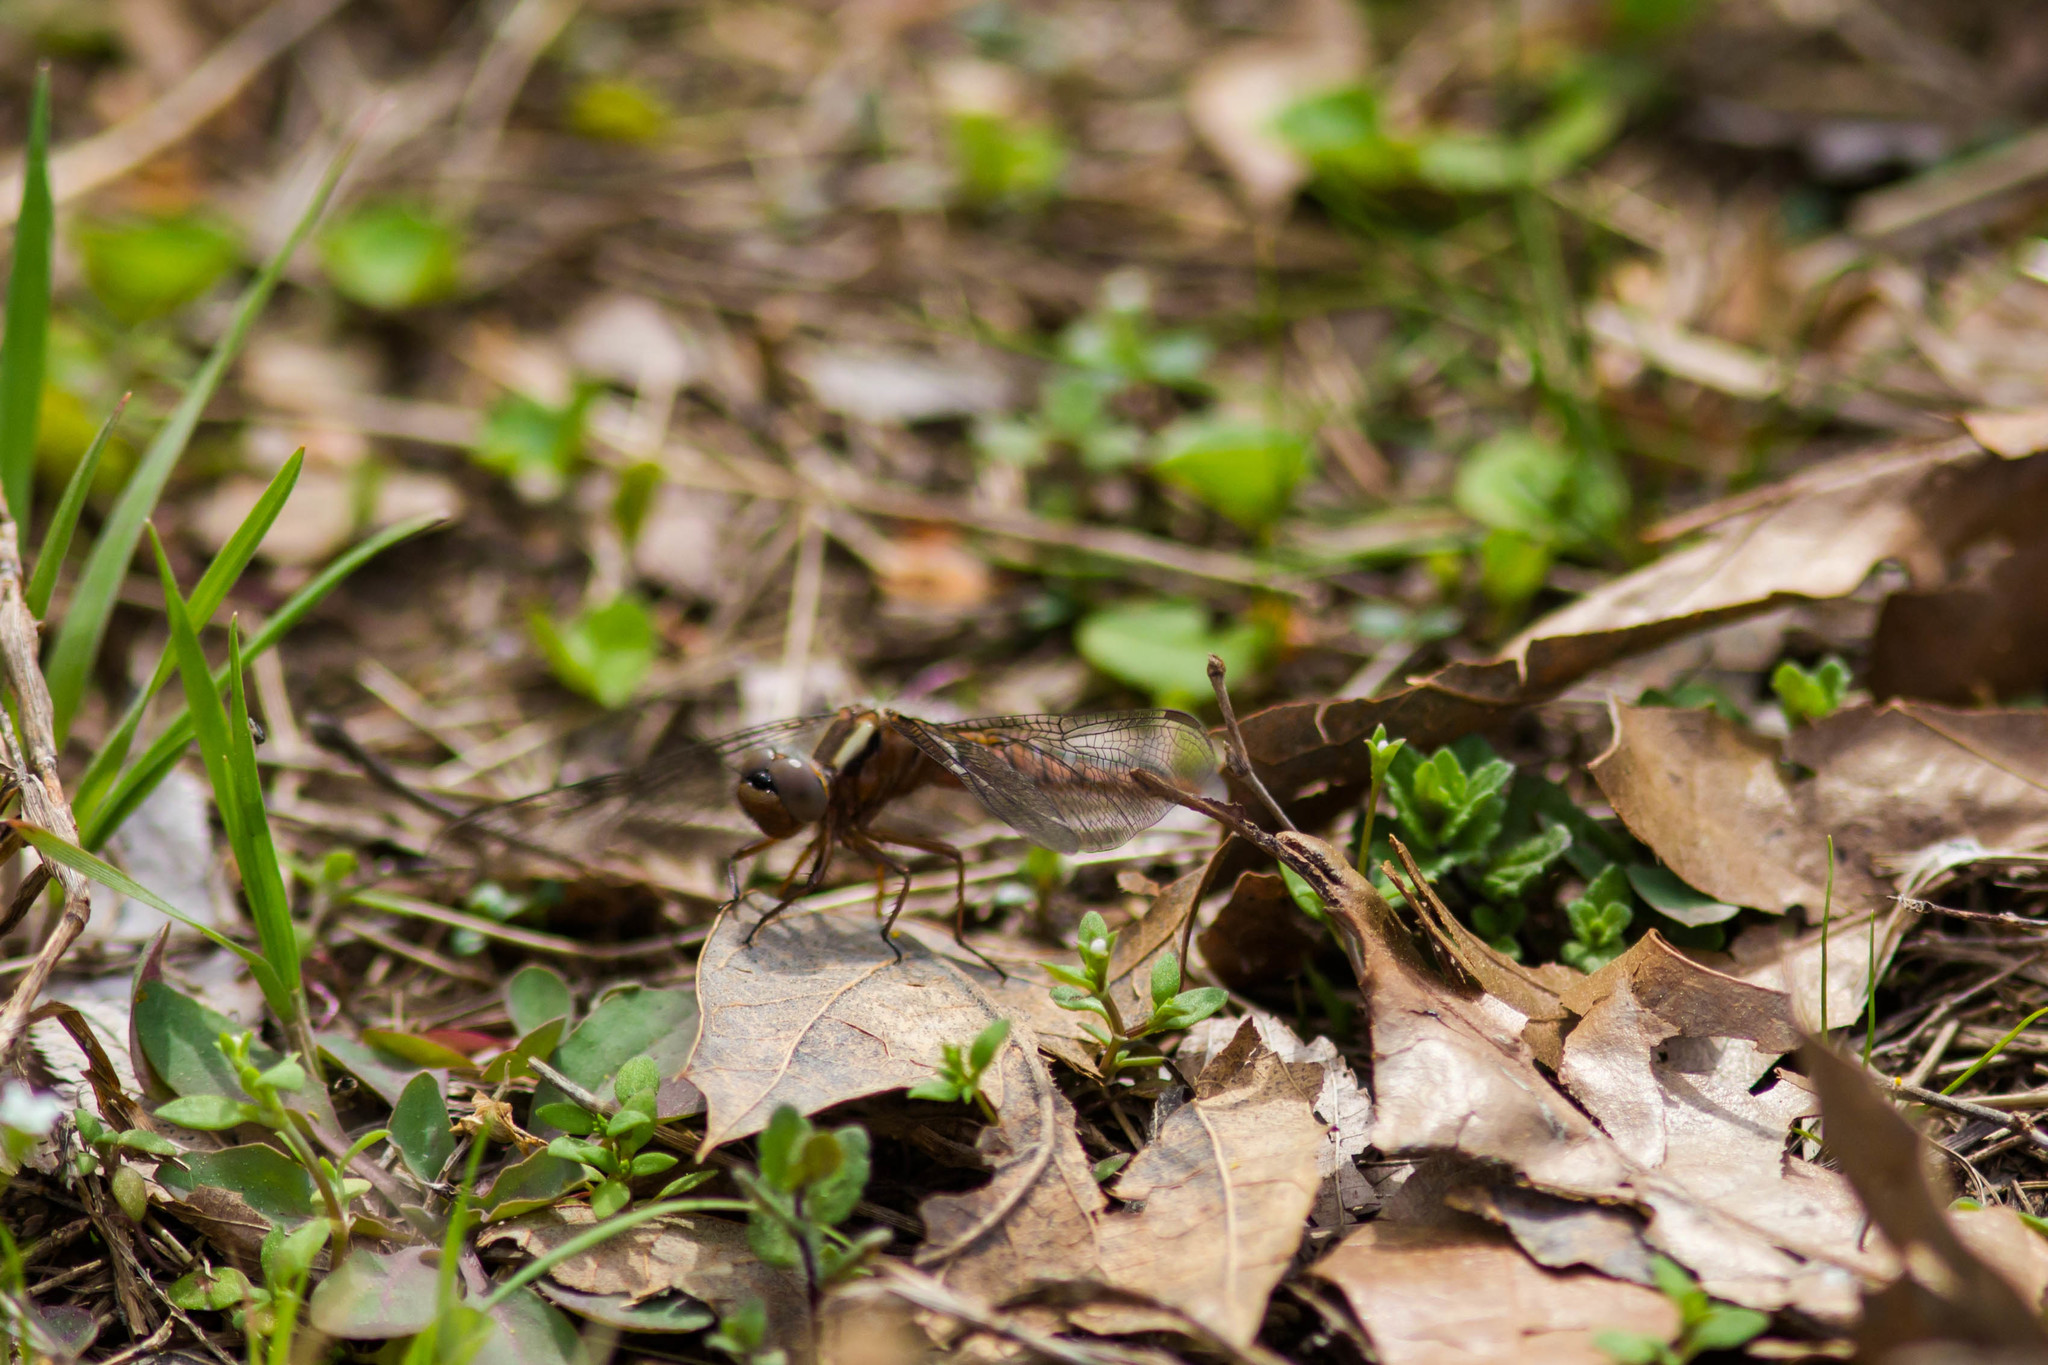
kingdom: Animalia
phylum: Arthropoda
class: Insecta
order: Odonata
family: Libellulidae
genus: Ladona
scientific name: Ladona deplanata
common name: Blue corporal
